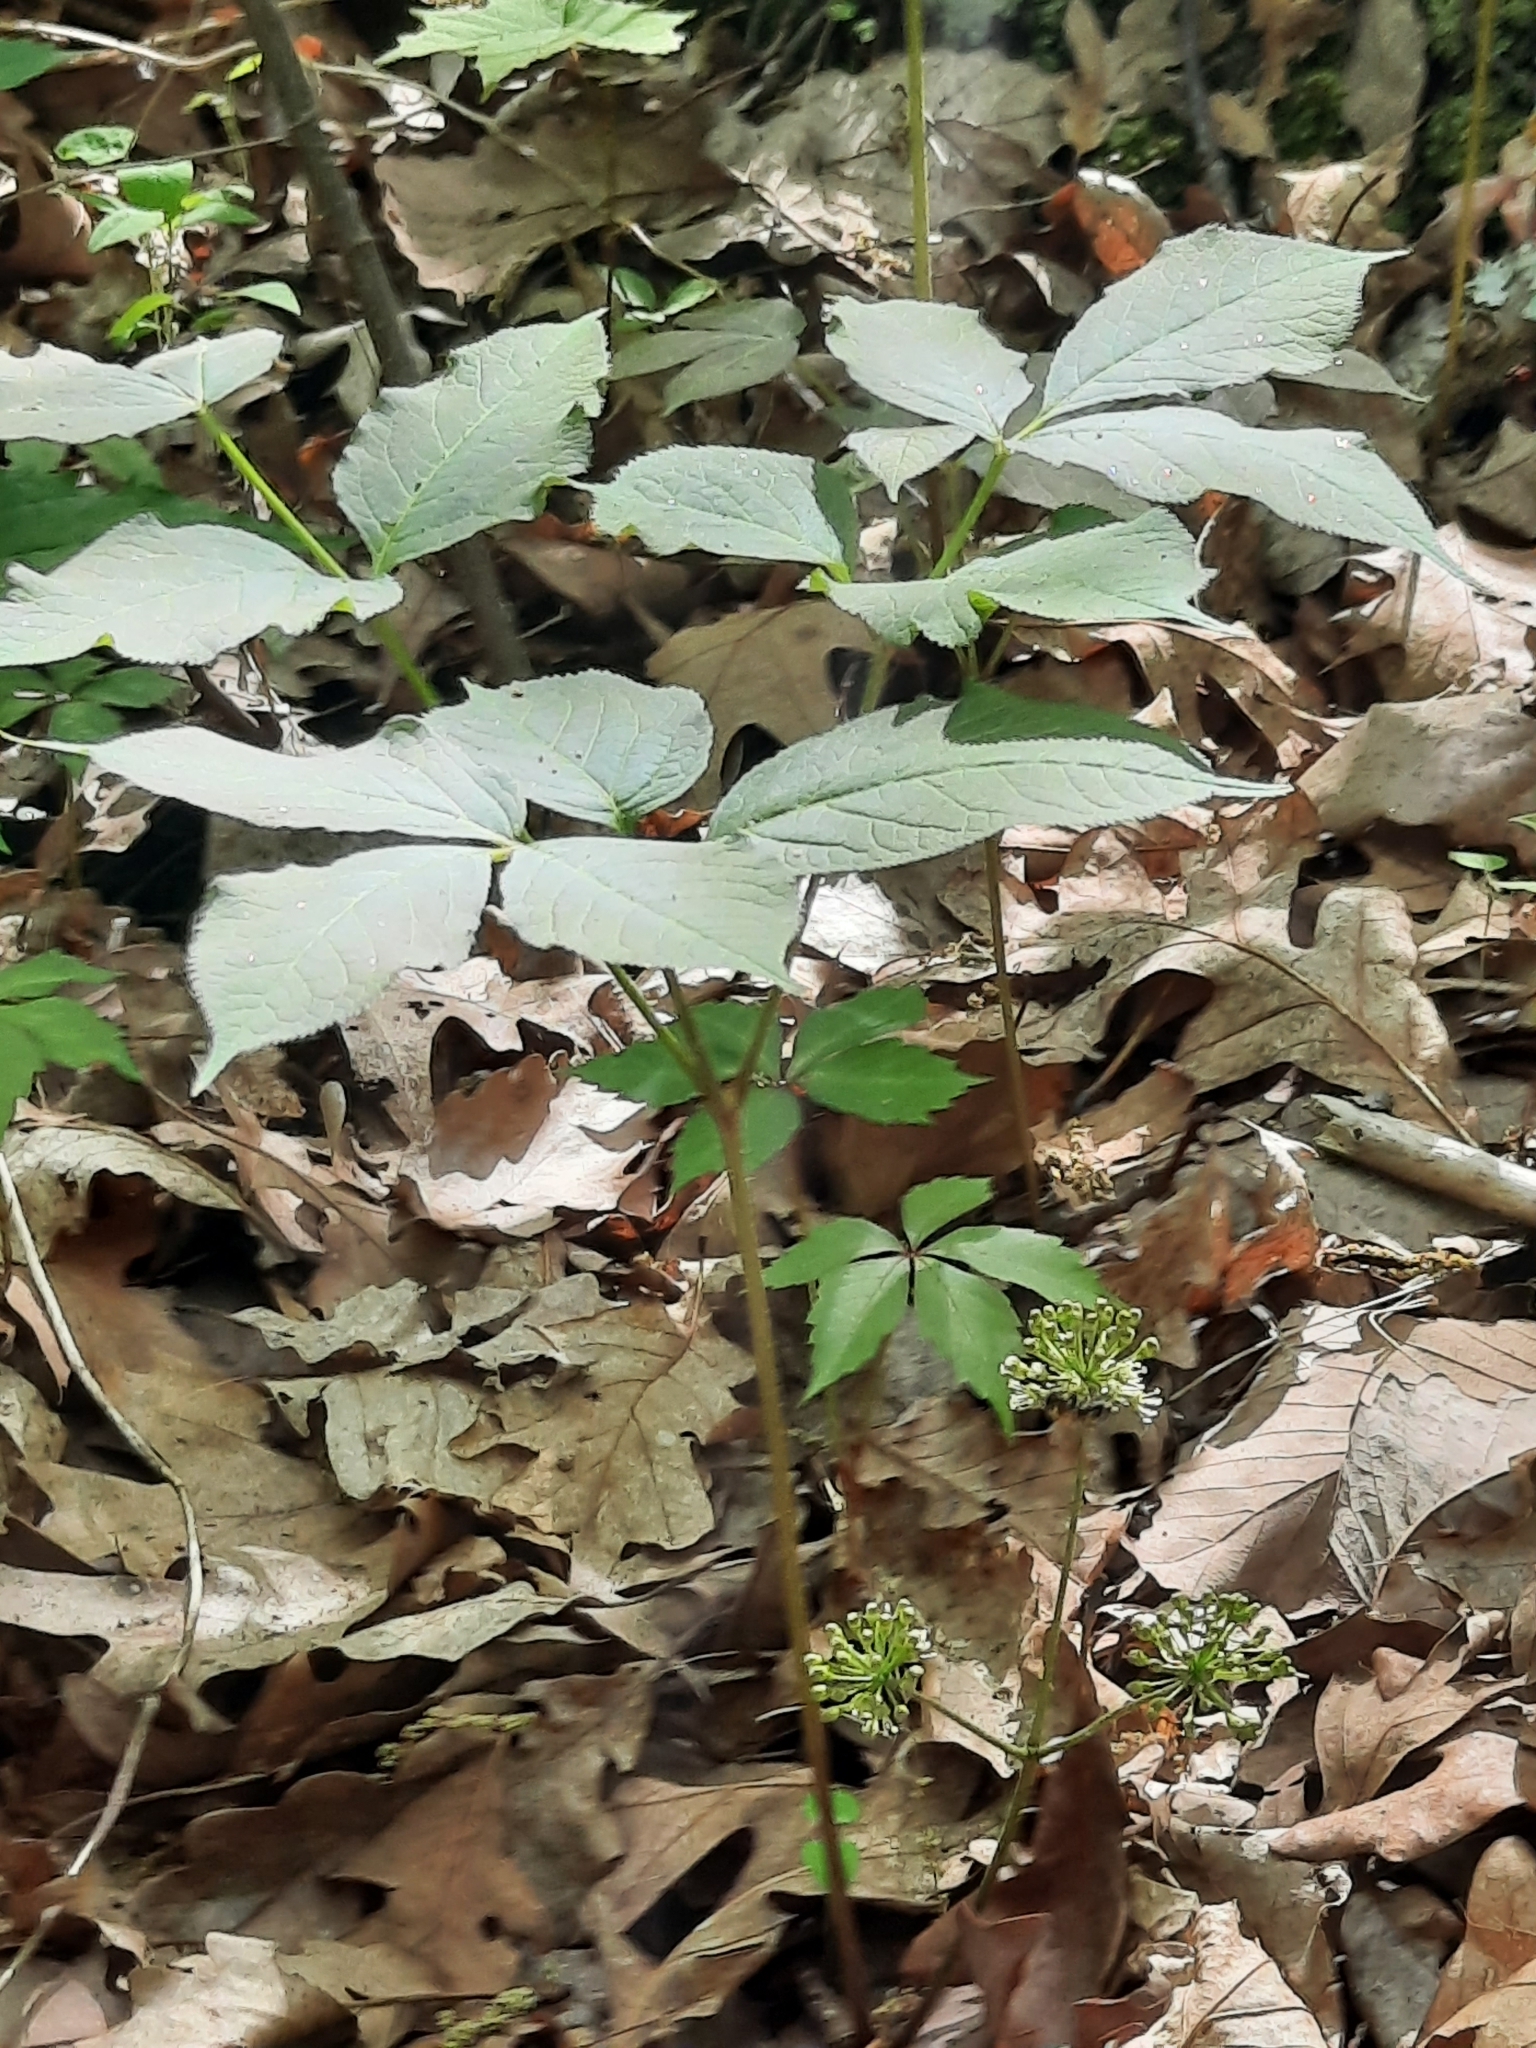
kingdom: Plantae
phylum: Tracheophyta
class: Magnoliopsida
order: Apiales
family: Araliaceae
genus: Aralia
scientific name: Aralia nudicaulis
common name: Wild sarsaparilla
